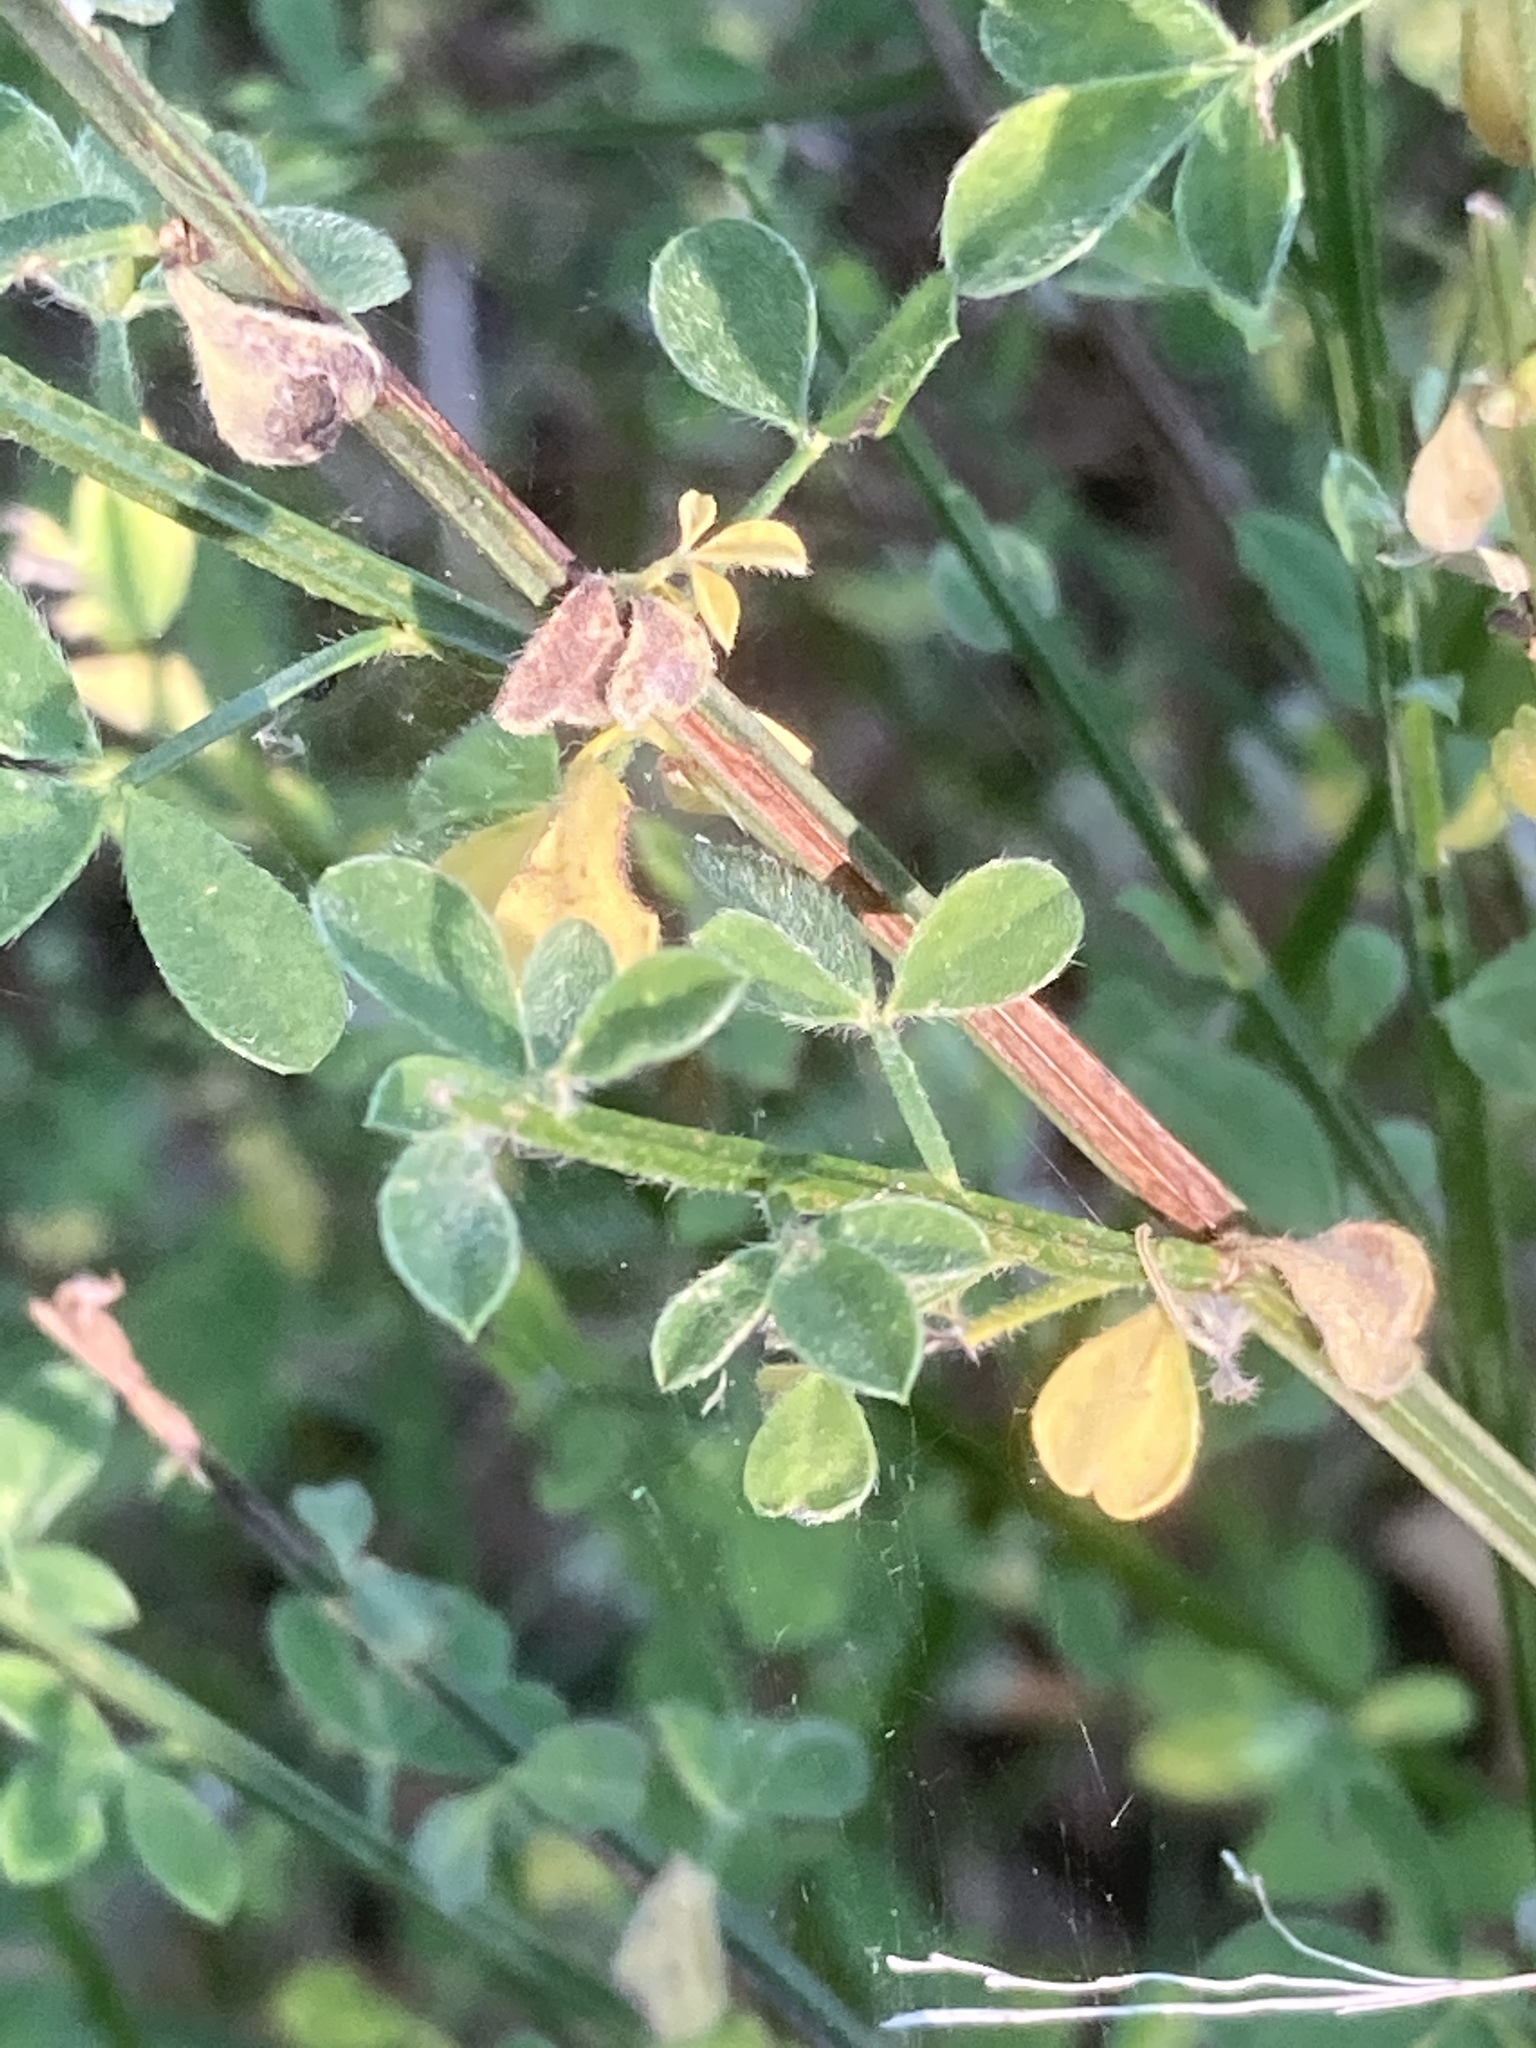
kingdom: Plantae
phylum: Tracheophyta
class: Magnoliopsida
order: Fabales
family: Fabaceae
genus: Cytisus
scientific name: Cytisus scoparius
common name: Scotch broom
